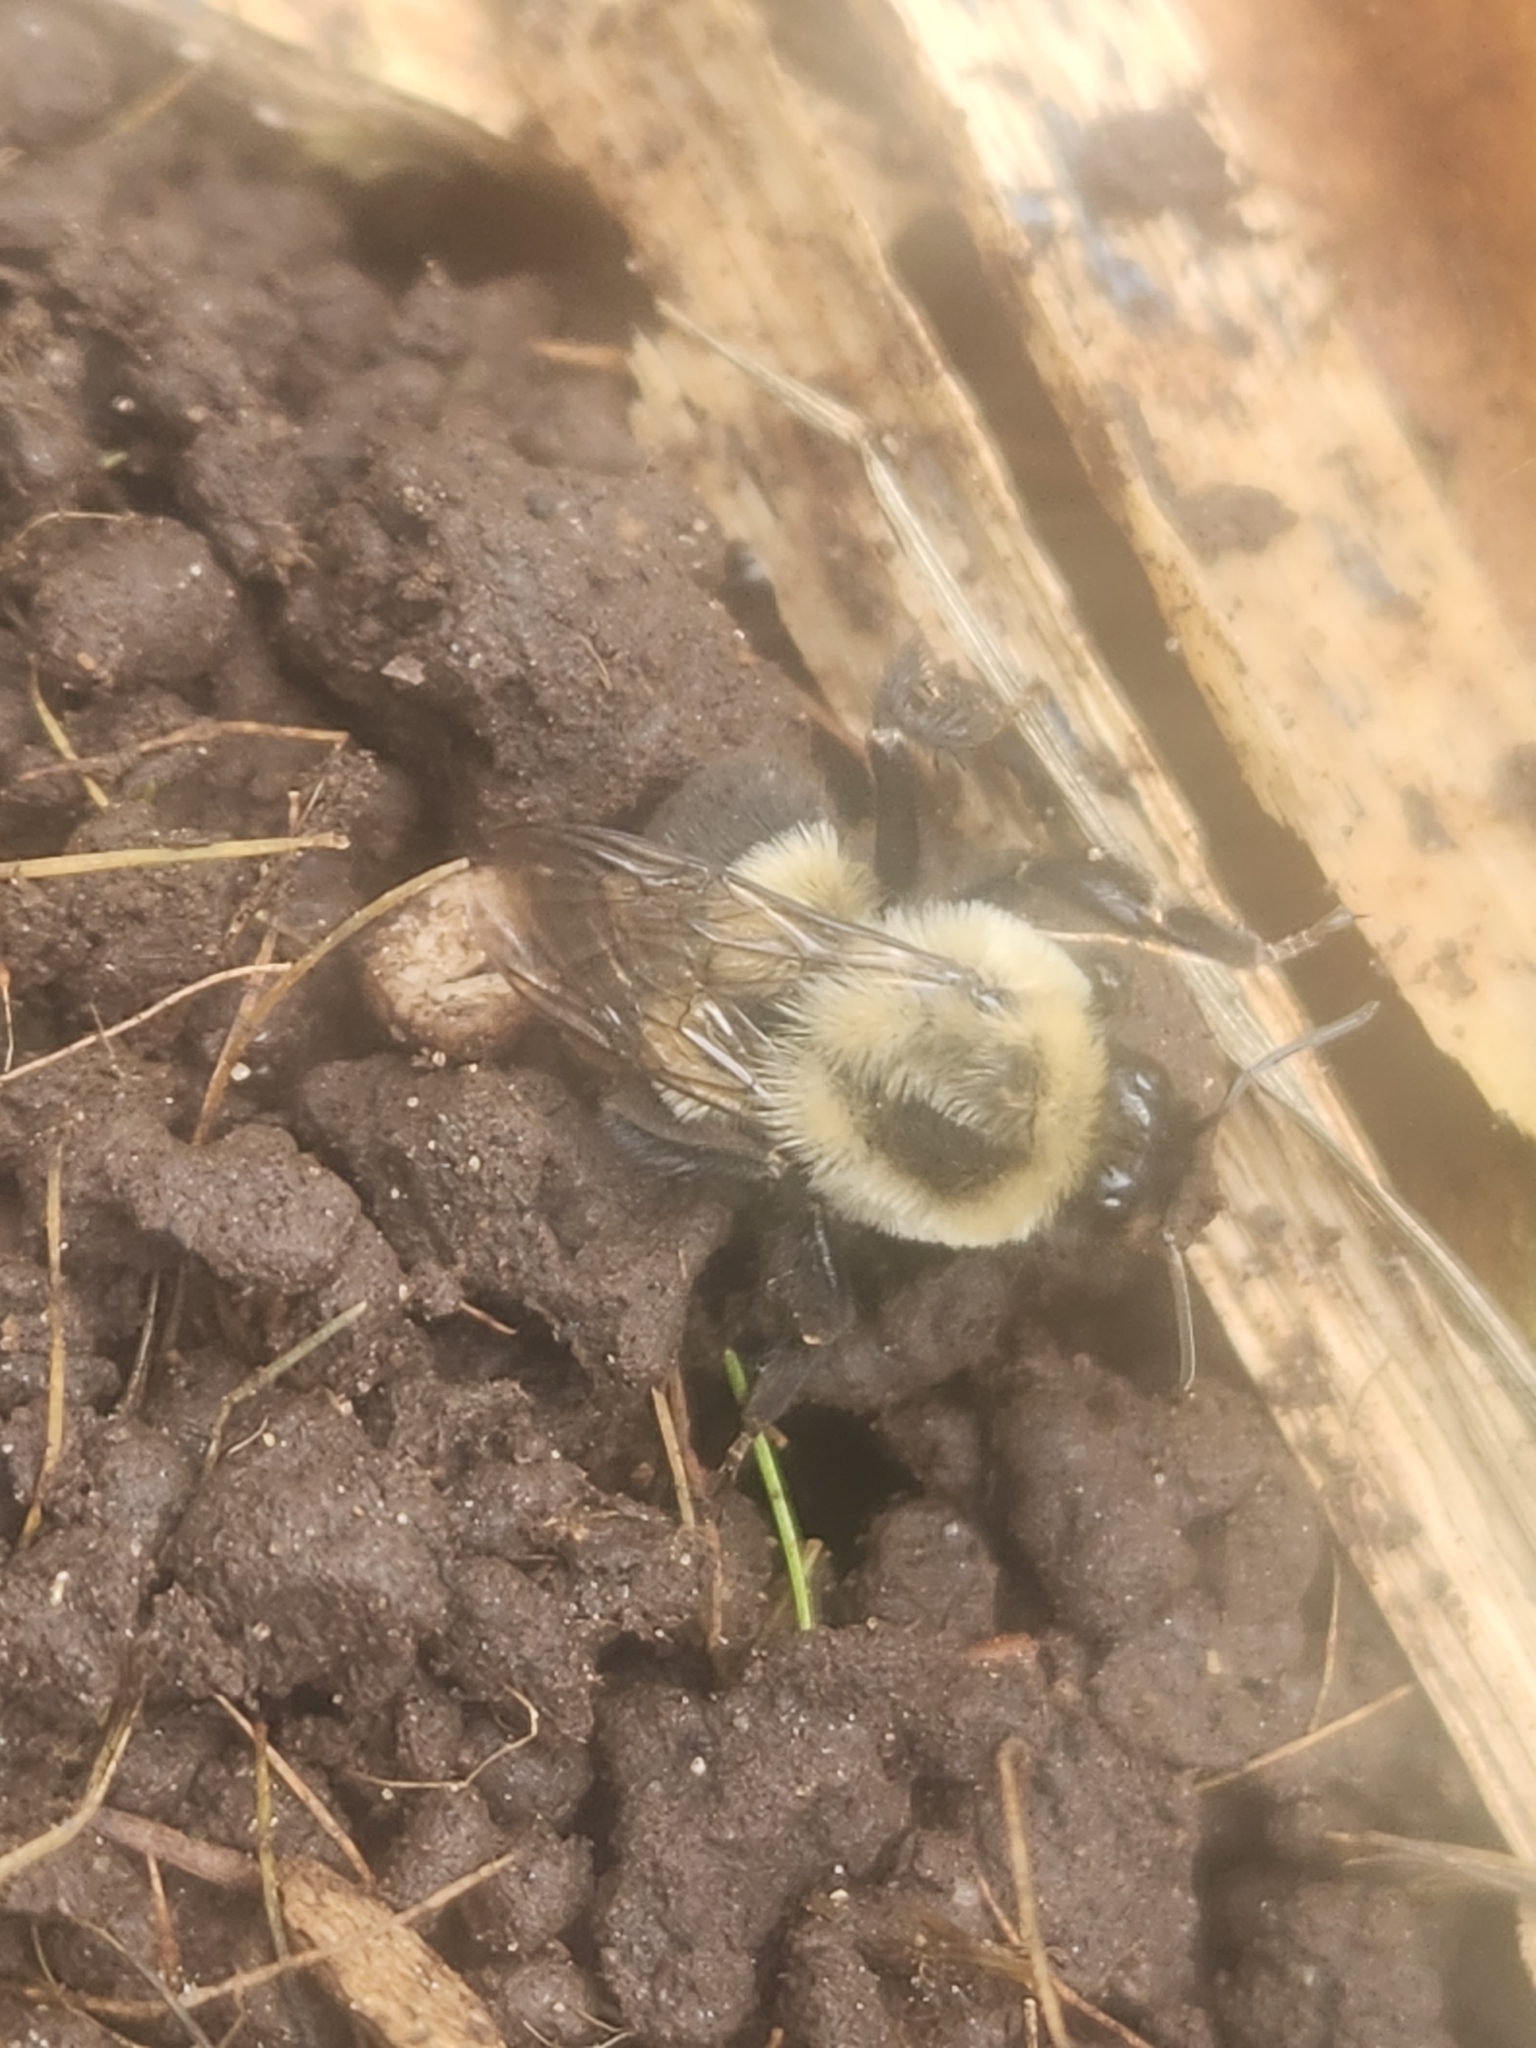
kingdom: Animalia
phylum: Arthropoda
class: Insecta
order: Hymenoptera
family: Apidae
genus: Bombus
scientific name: Bombus impatiens
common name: Common eastern bumble bee
